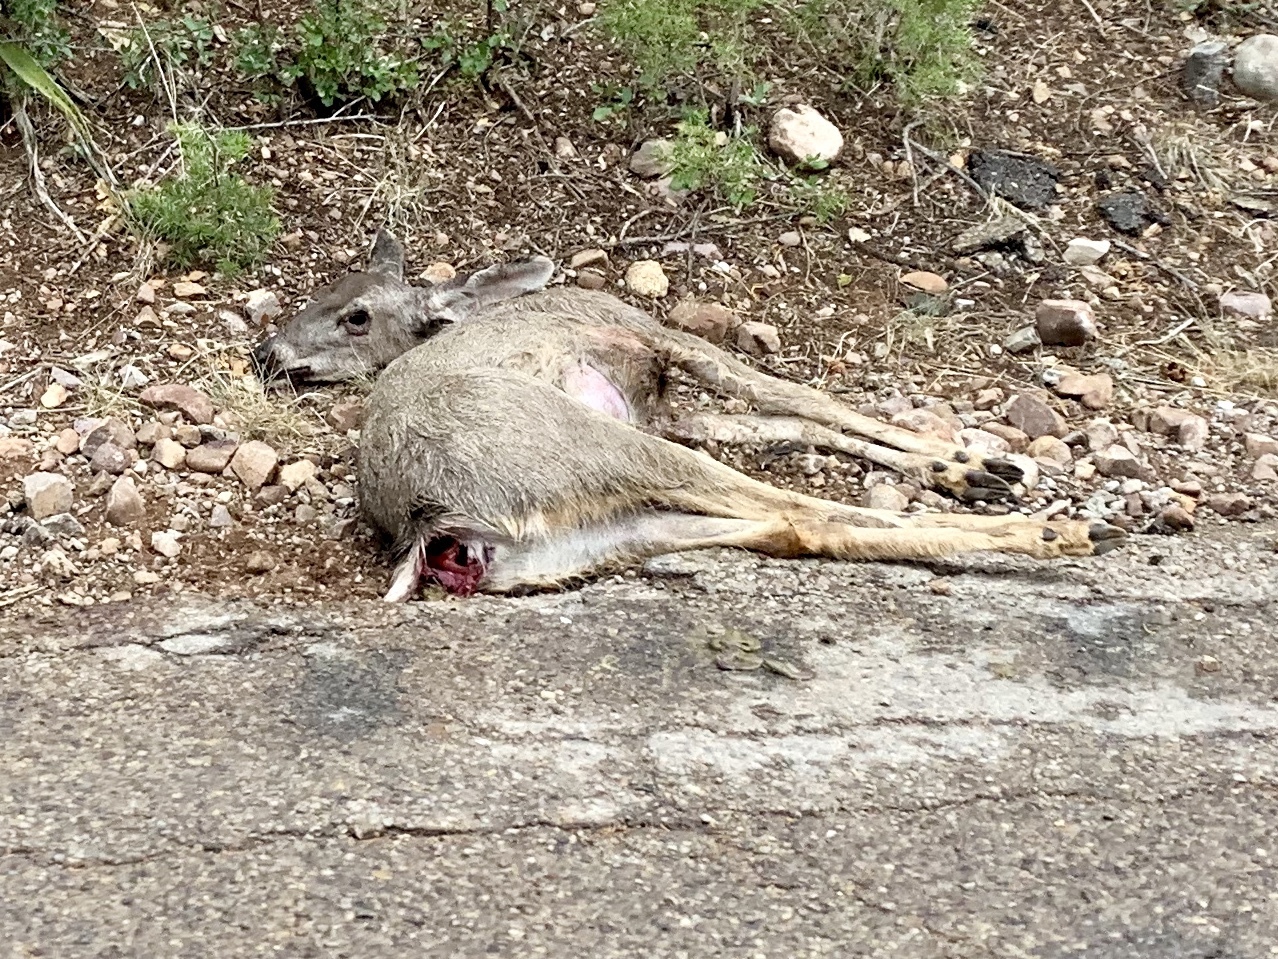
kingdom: Animalia
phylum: Chordata
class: Mammalia
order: Artiodactyla
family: Cervidae
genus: Odocoileus
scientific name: Odocoileus hemionus
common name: Mule deer
